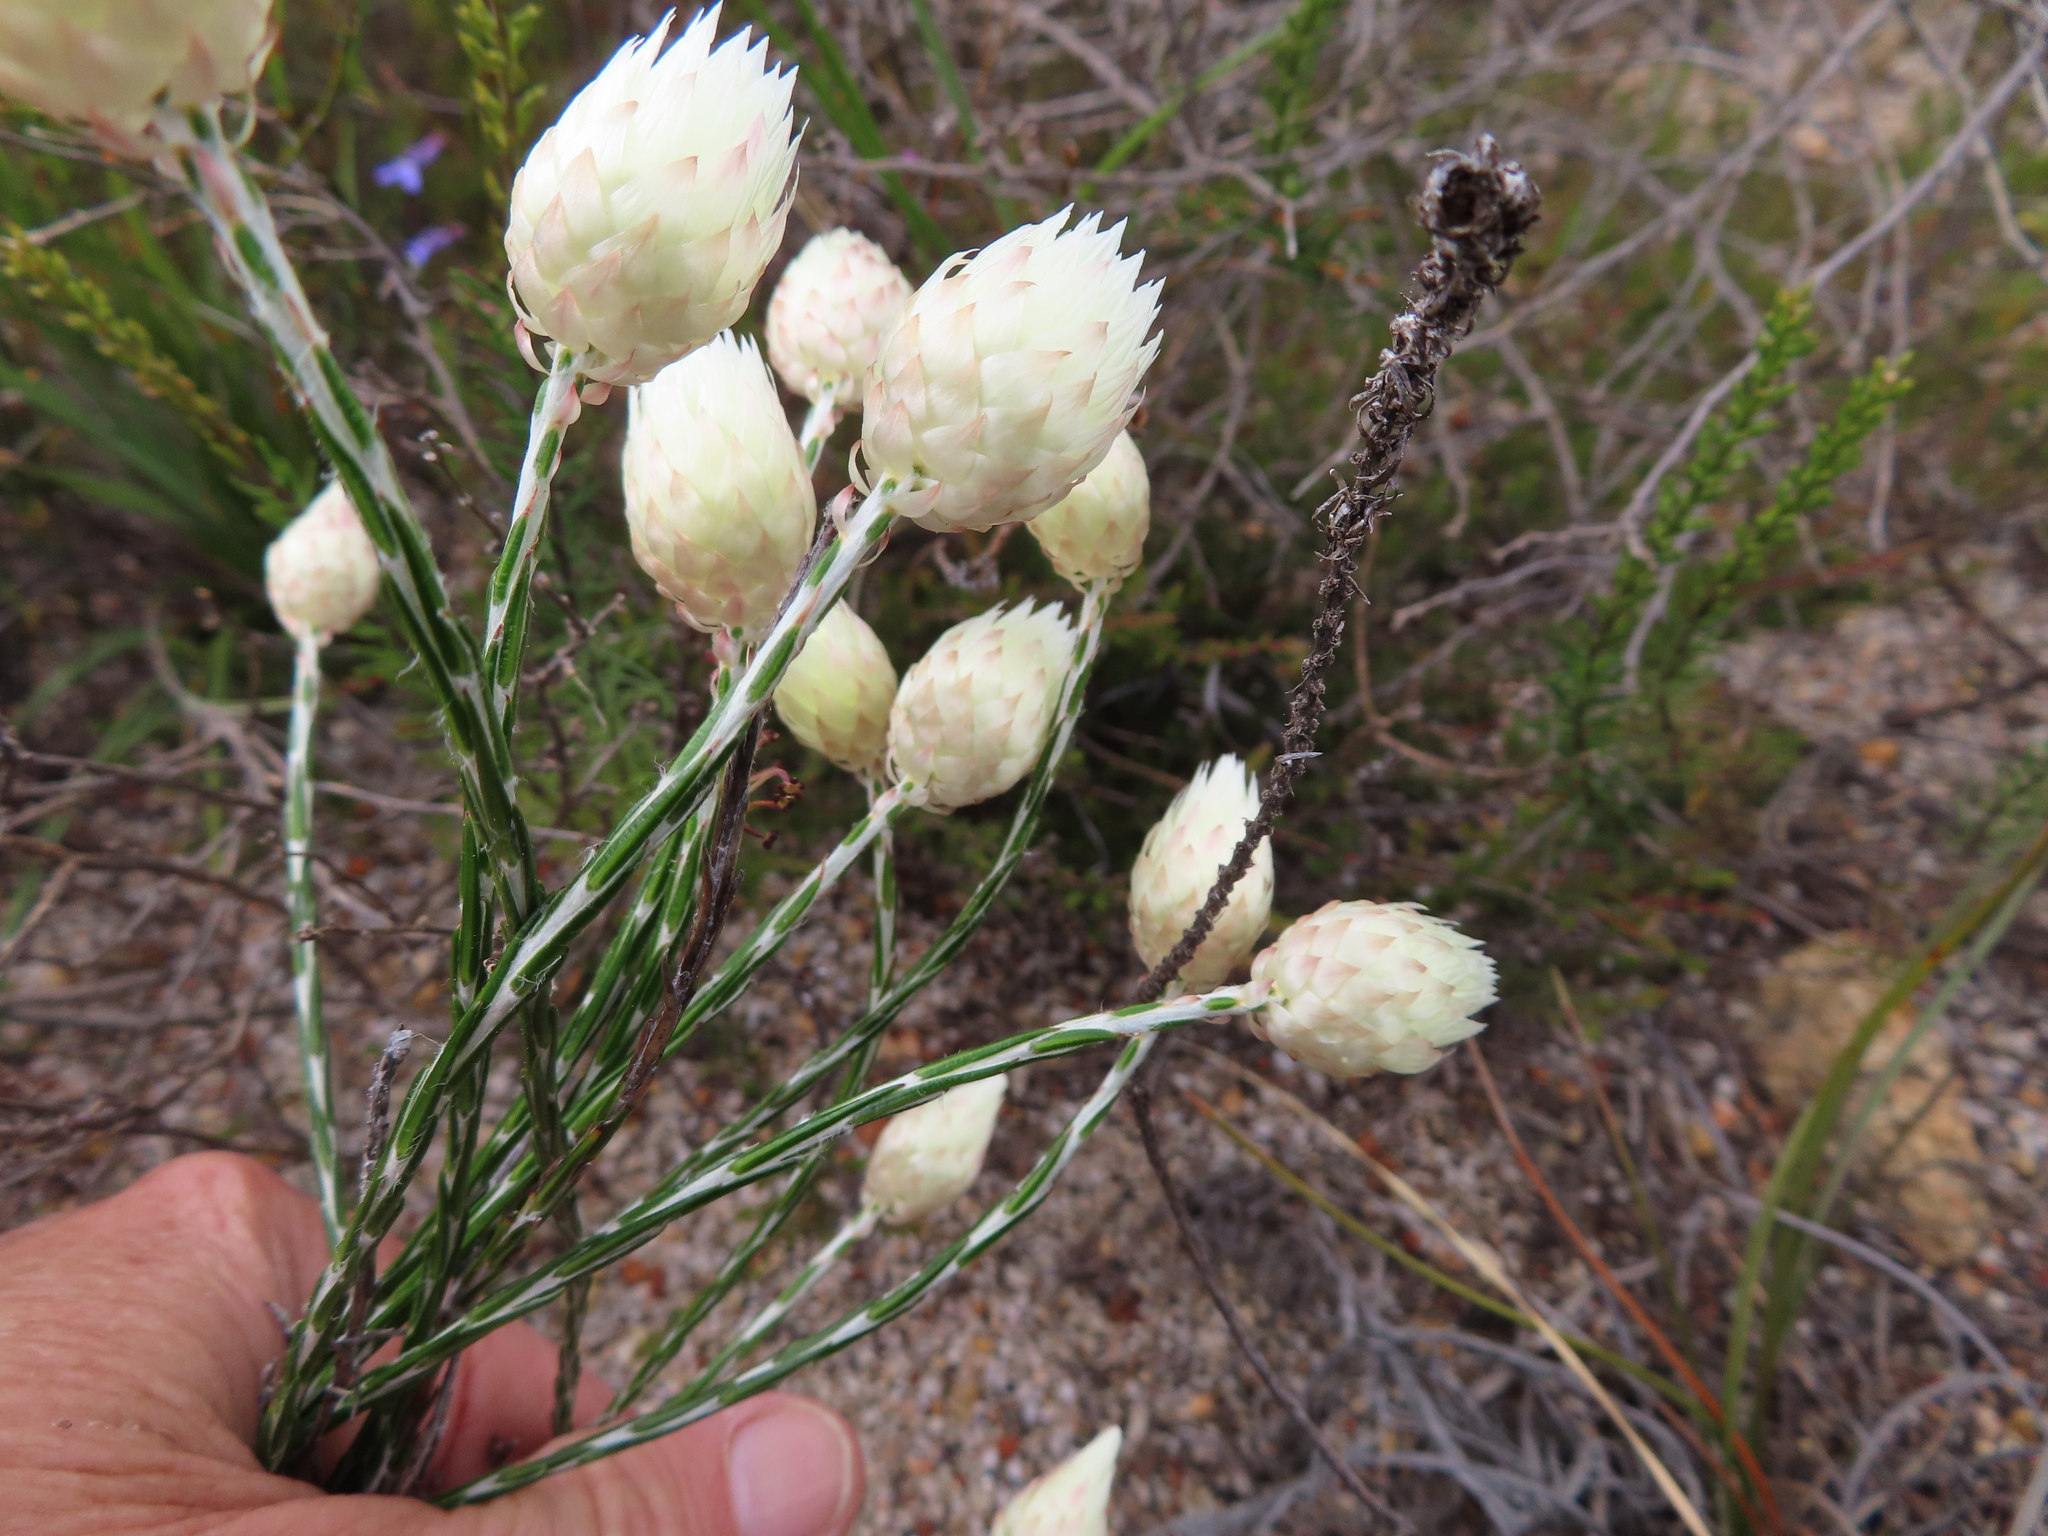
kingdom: Plantae
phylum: Tracheophyta
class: Magnoliopsida
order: Asterales
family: Asteraceae
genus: Edmondia
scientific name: Edmondia sesamoides
